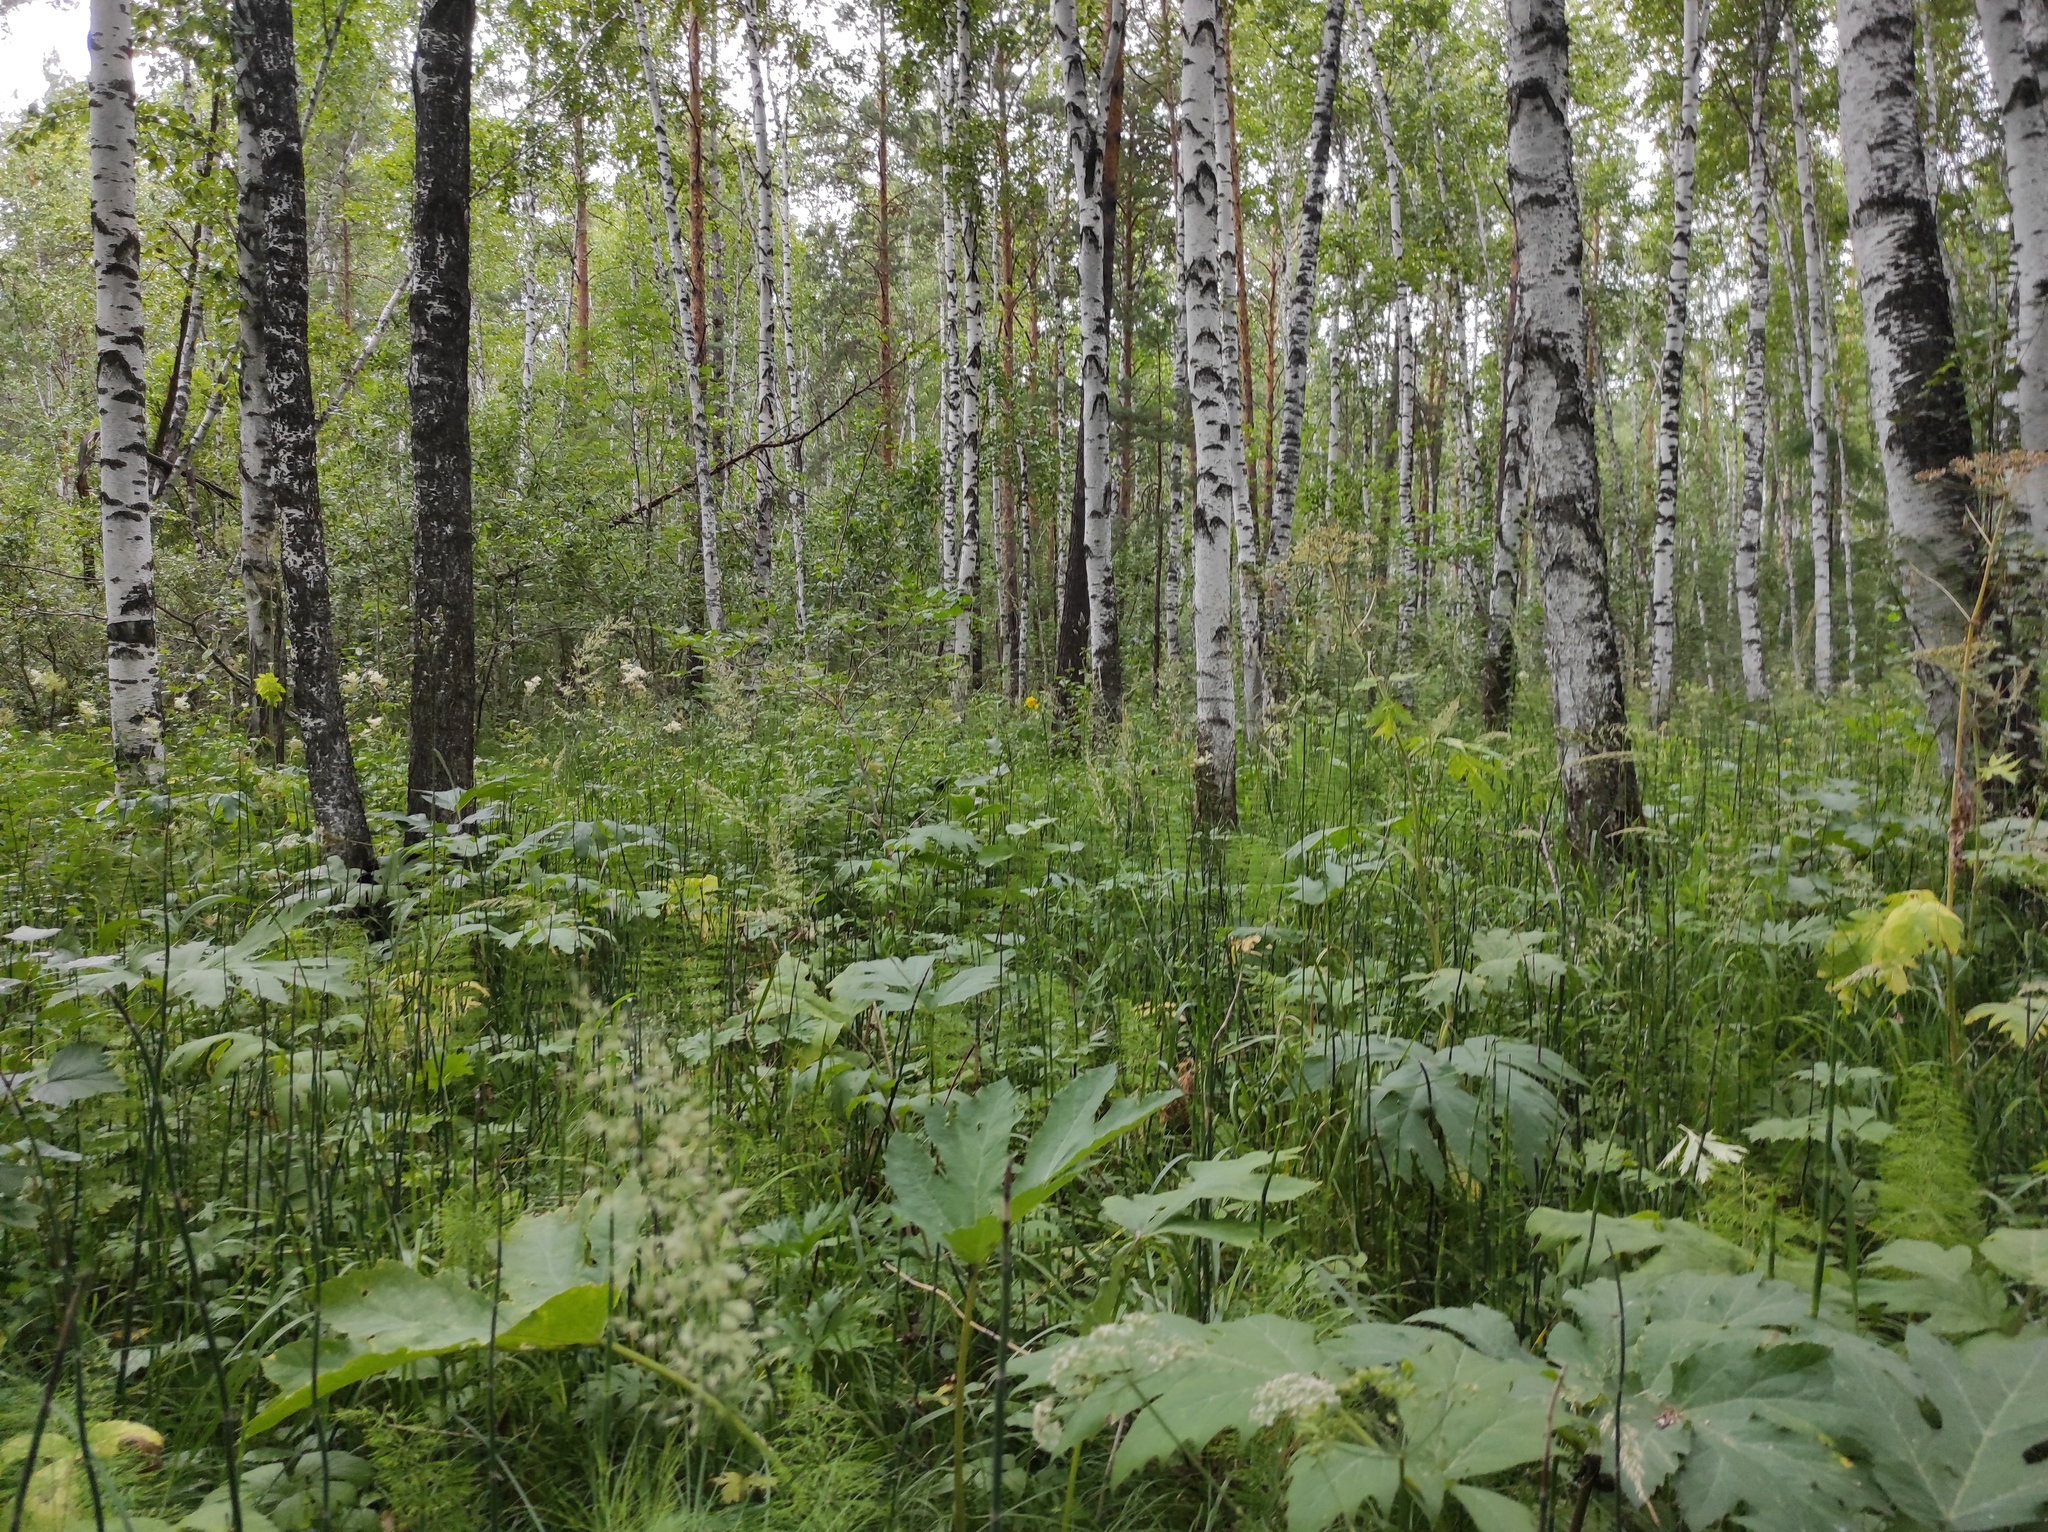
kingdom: Plantae
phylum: Tracheophyta
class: Magnoliopsida
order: Fagales
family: Betulaceae
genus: Betula
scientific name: Betula pubescens
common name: Downy birch
